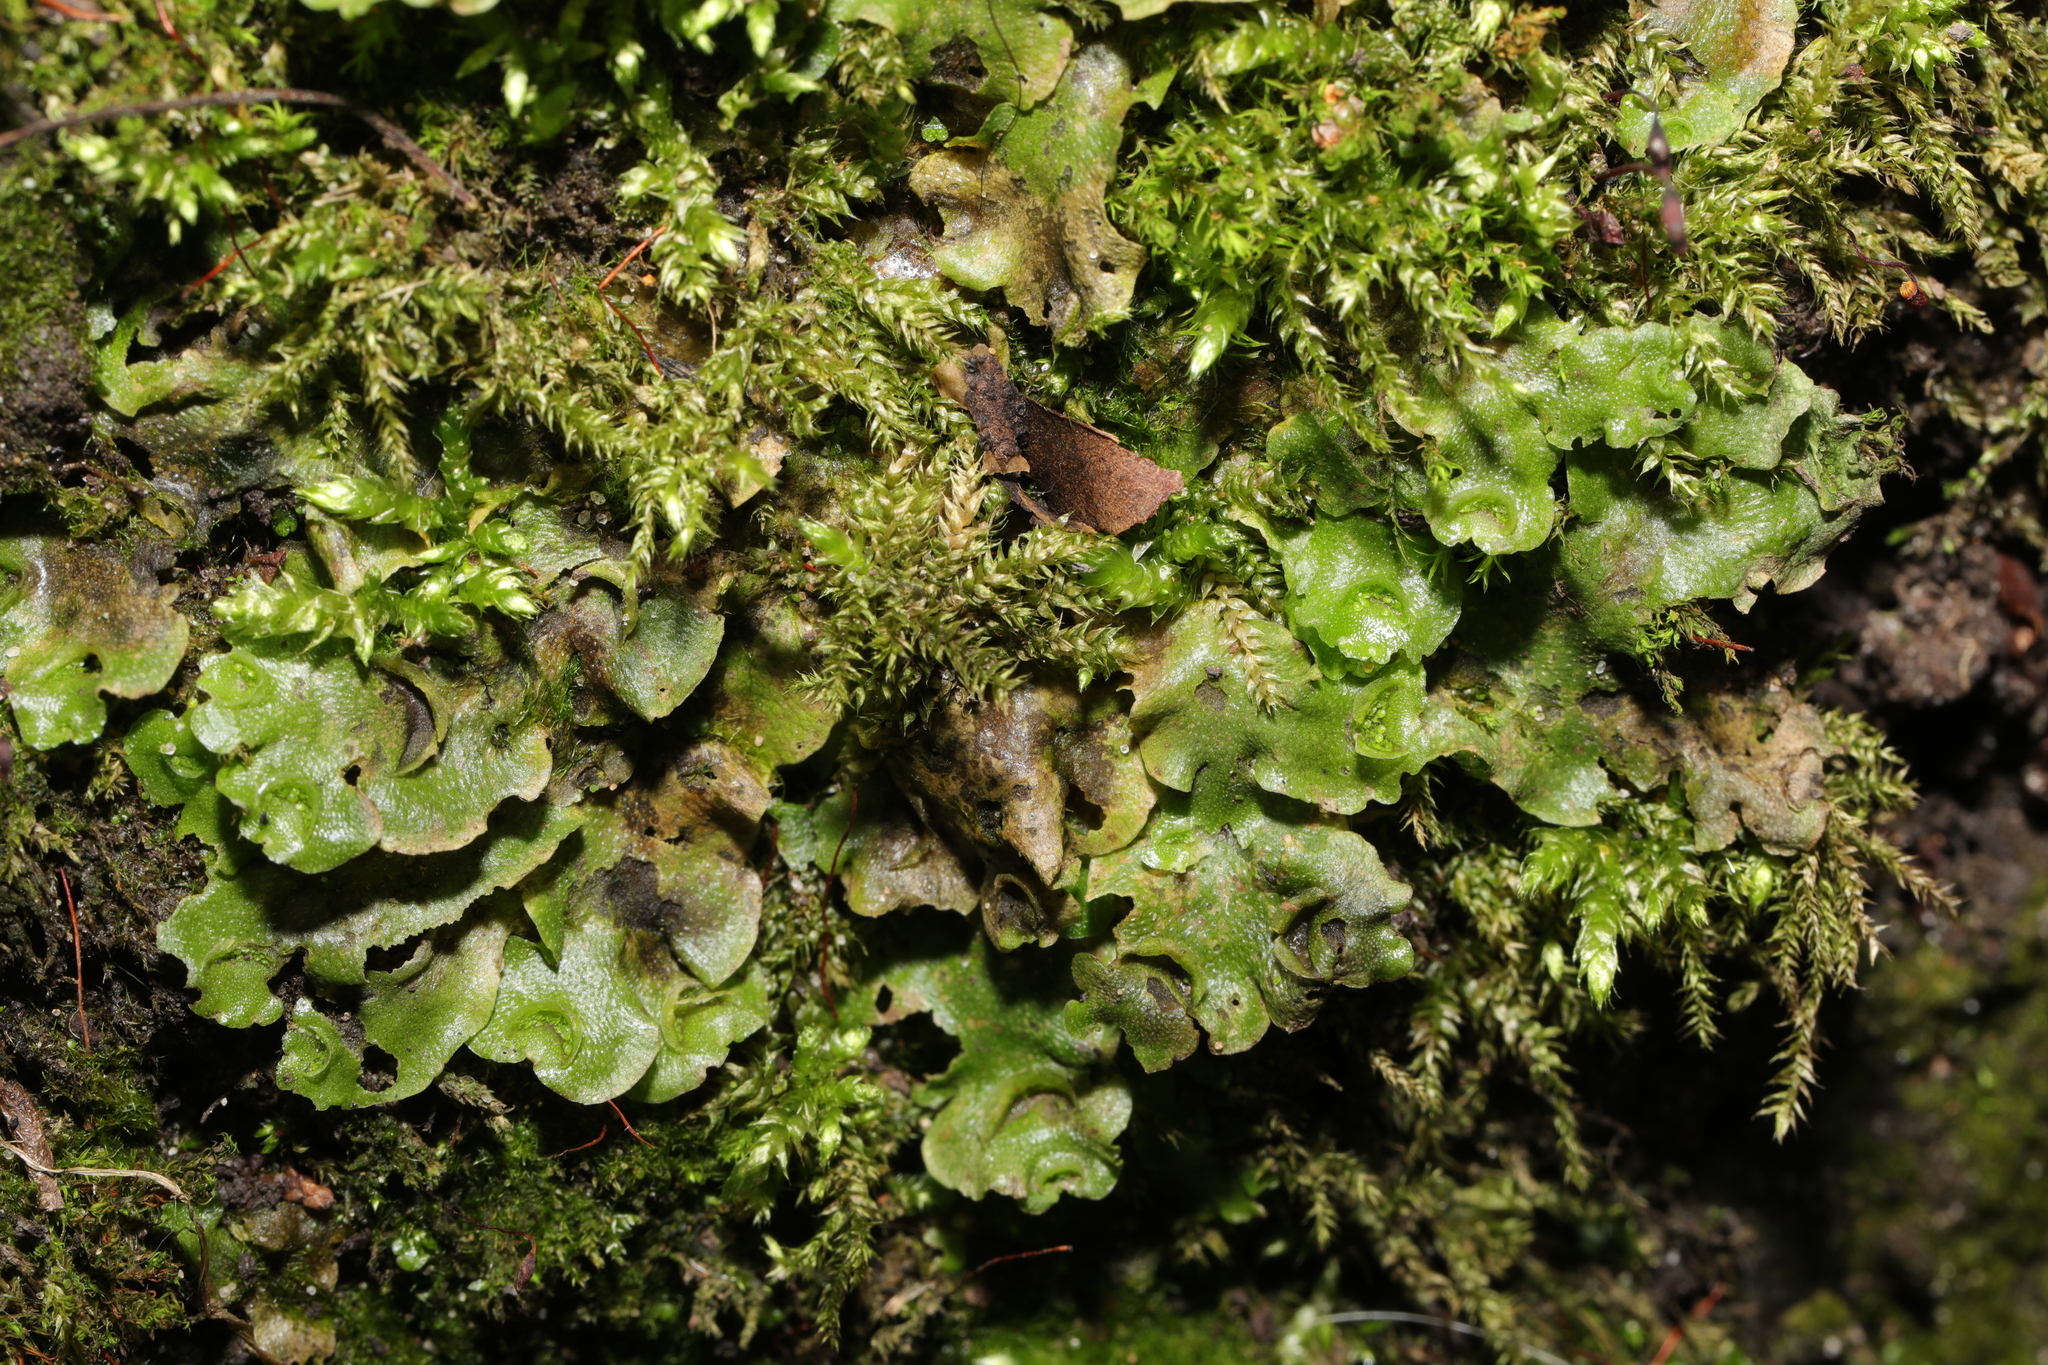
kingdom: Plantae
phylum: Marchantiophyta
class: Marchantiopsida
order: Lunulariales
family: Lunulariaceae
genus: Lunularia
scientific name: Lunularia cruciata
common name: Crescent-cup liverwort
